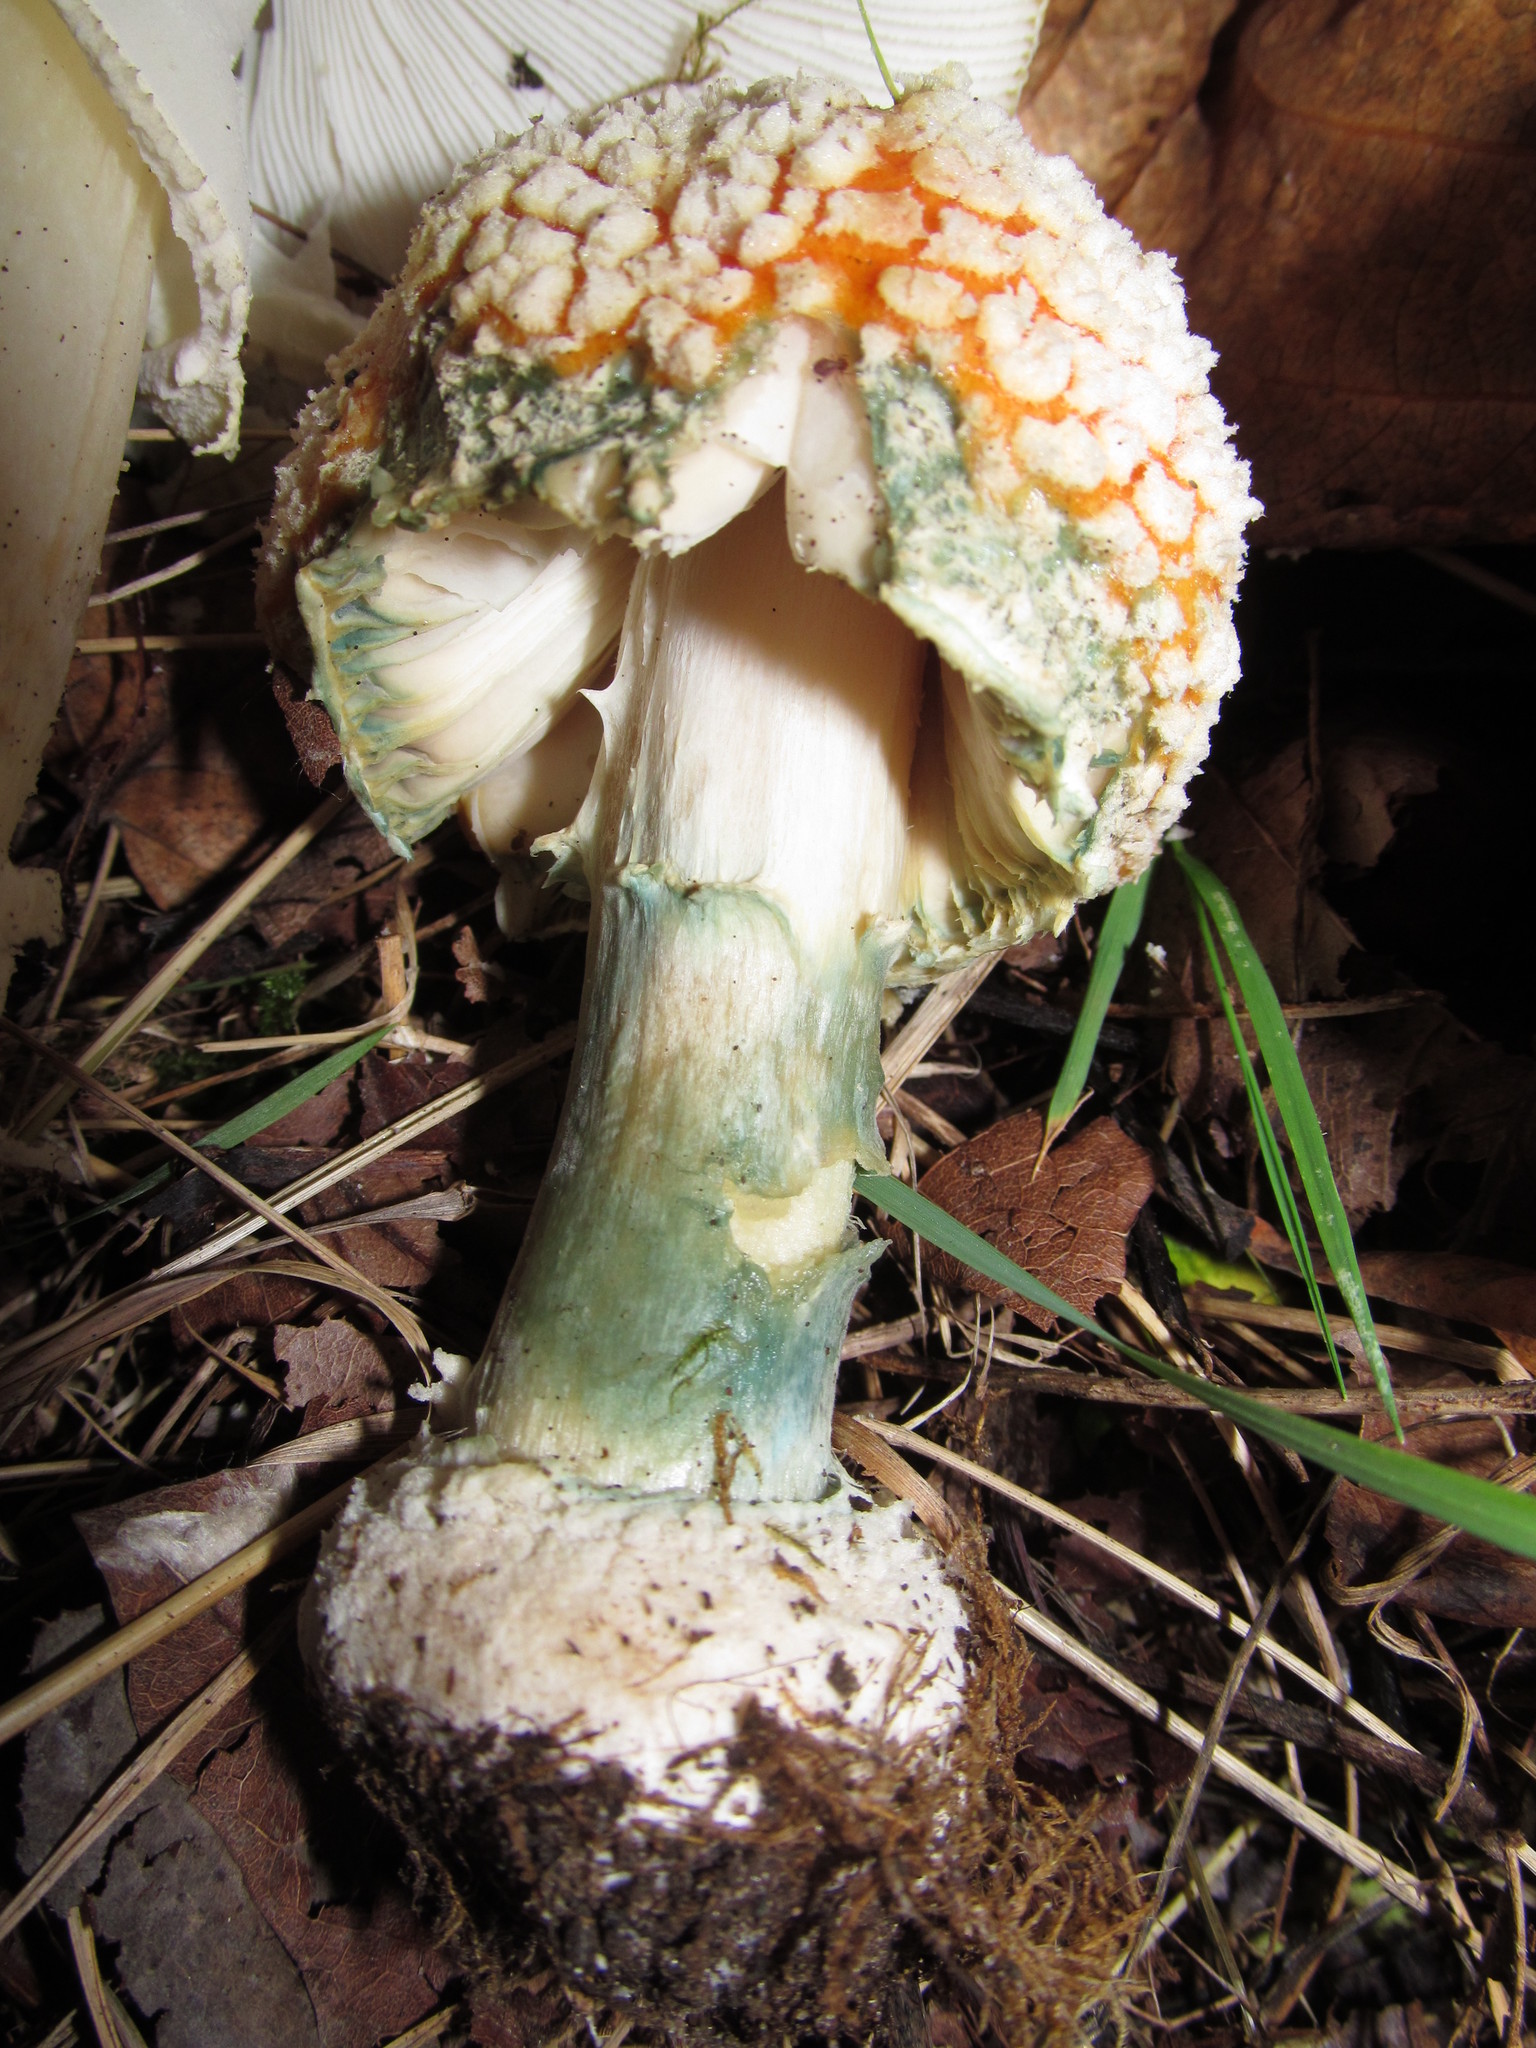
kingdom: Fungi
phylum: Basidiomycota
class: Agaricomycetes
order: Agaricales
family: Amanitaceae
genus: Amanita
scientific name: Amanita muscaria
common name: Fly agaric
